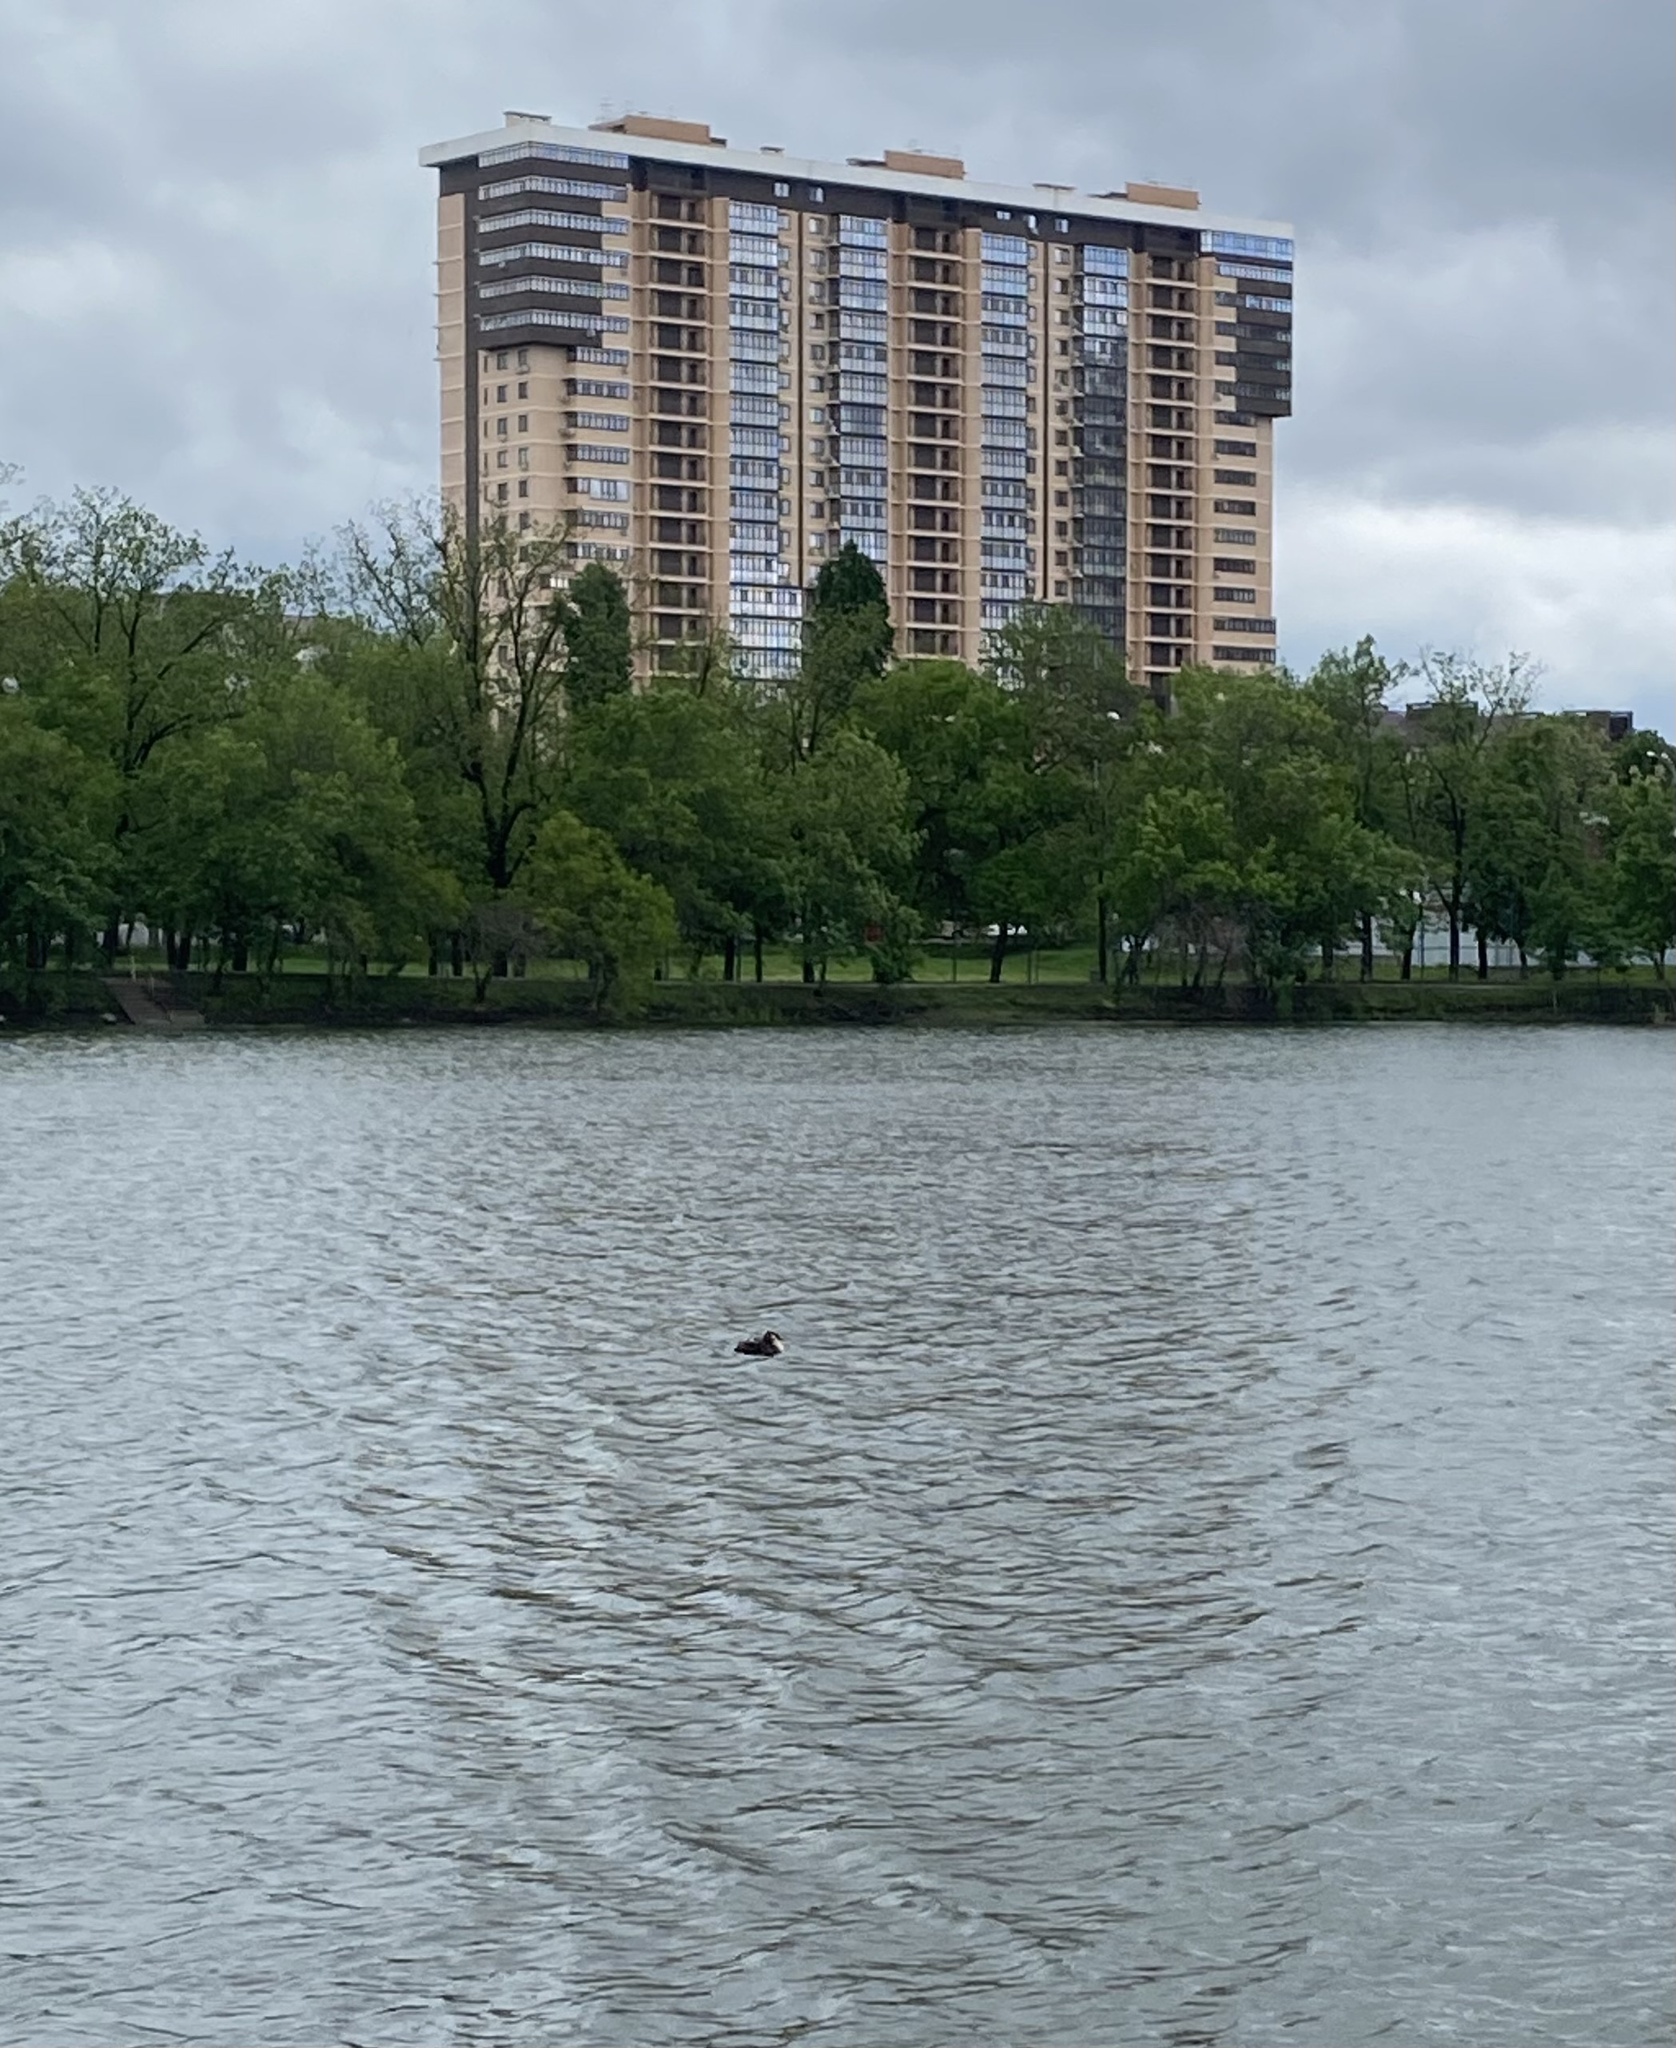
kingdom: Animalia
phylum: Chordata
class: Aves
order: Podicipediformes
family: Podicipedidae
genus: Podiceps
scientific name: Podiceps cristatus
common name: Great crested grebe
